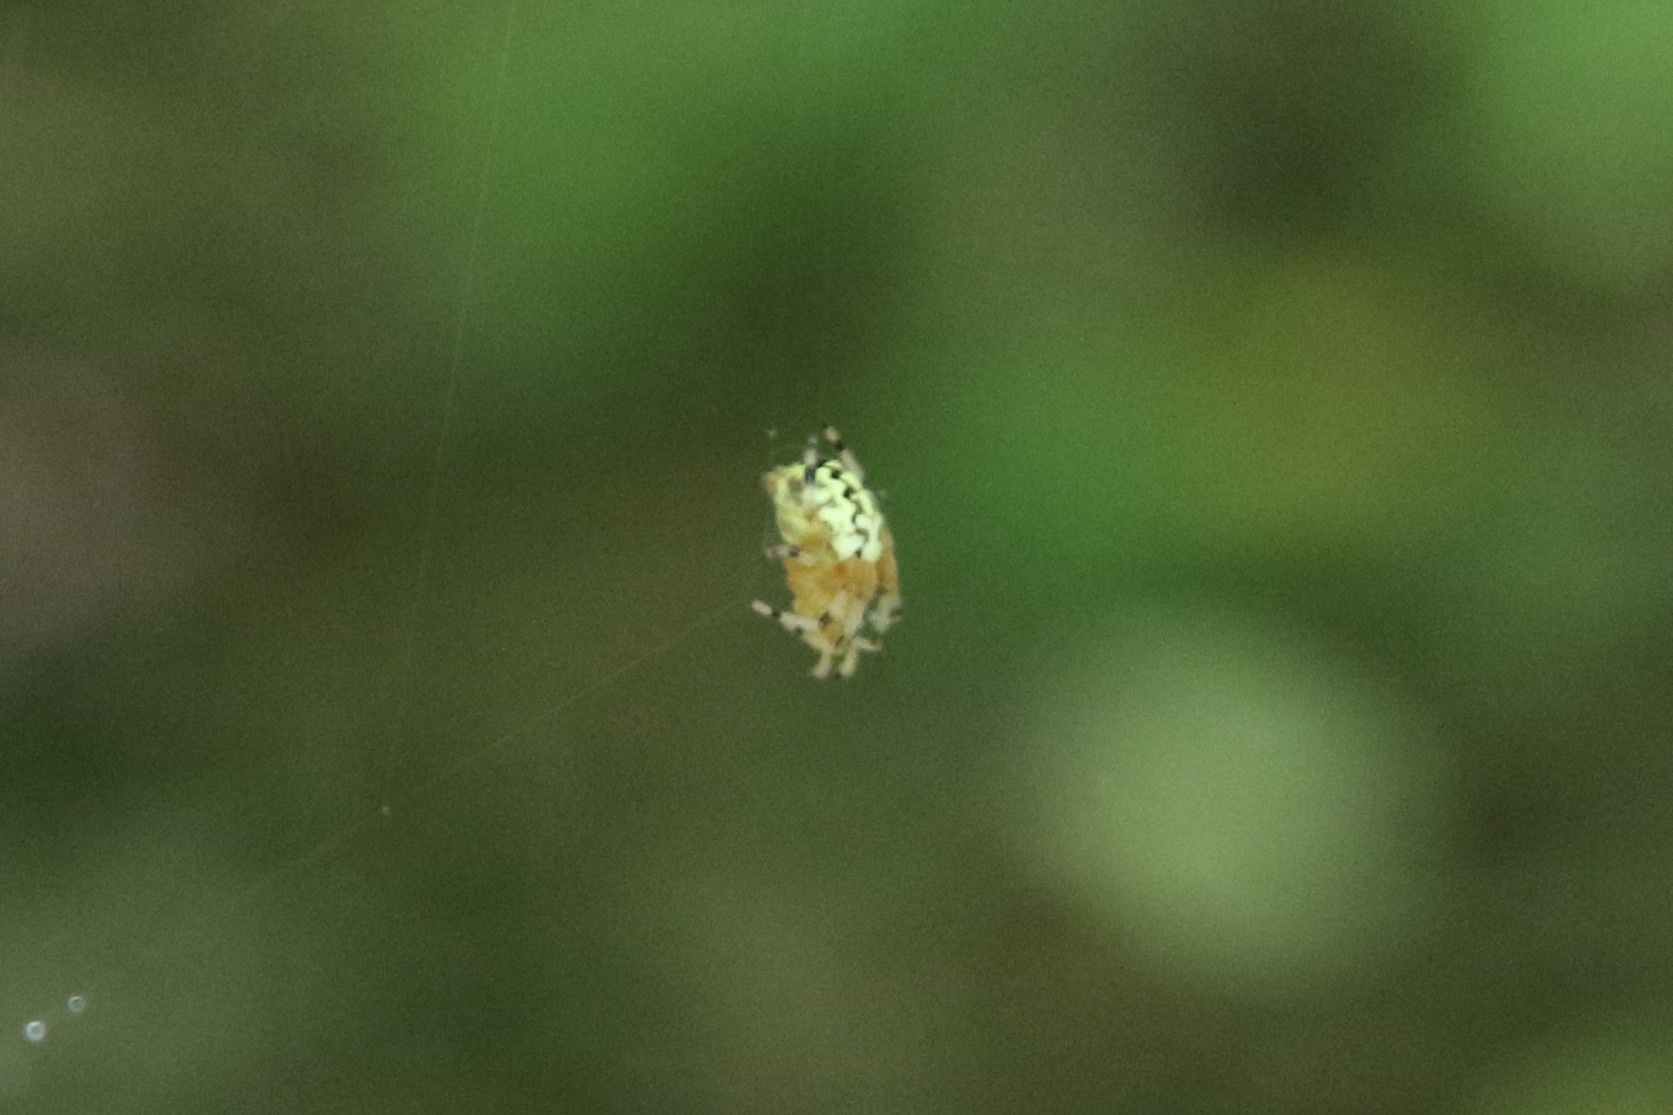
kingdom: Animalia
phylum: Arthropoda
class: Arachnida
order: Araneae
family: Araneidae
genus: Araneus
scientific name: Araneus marmoreus
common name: Marbled orbweaver
